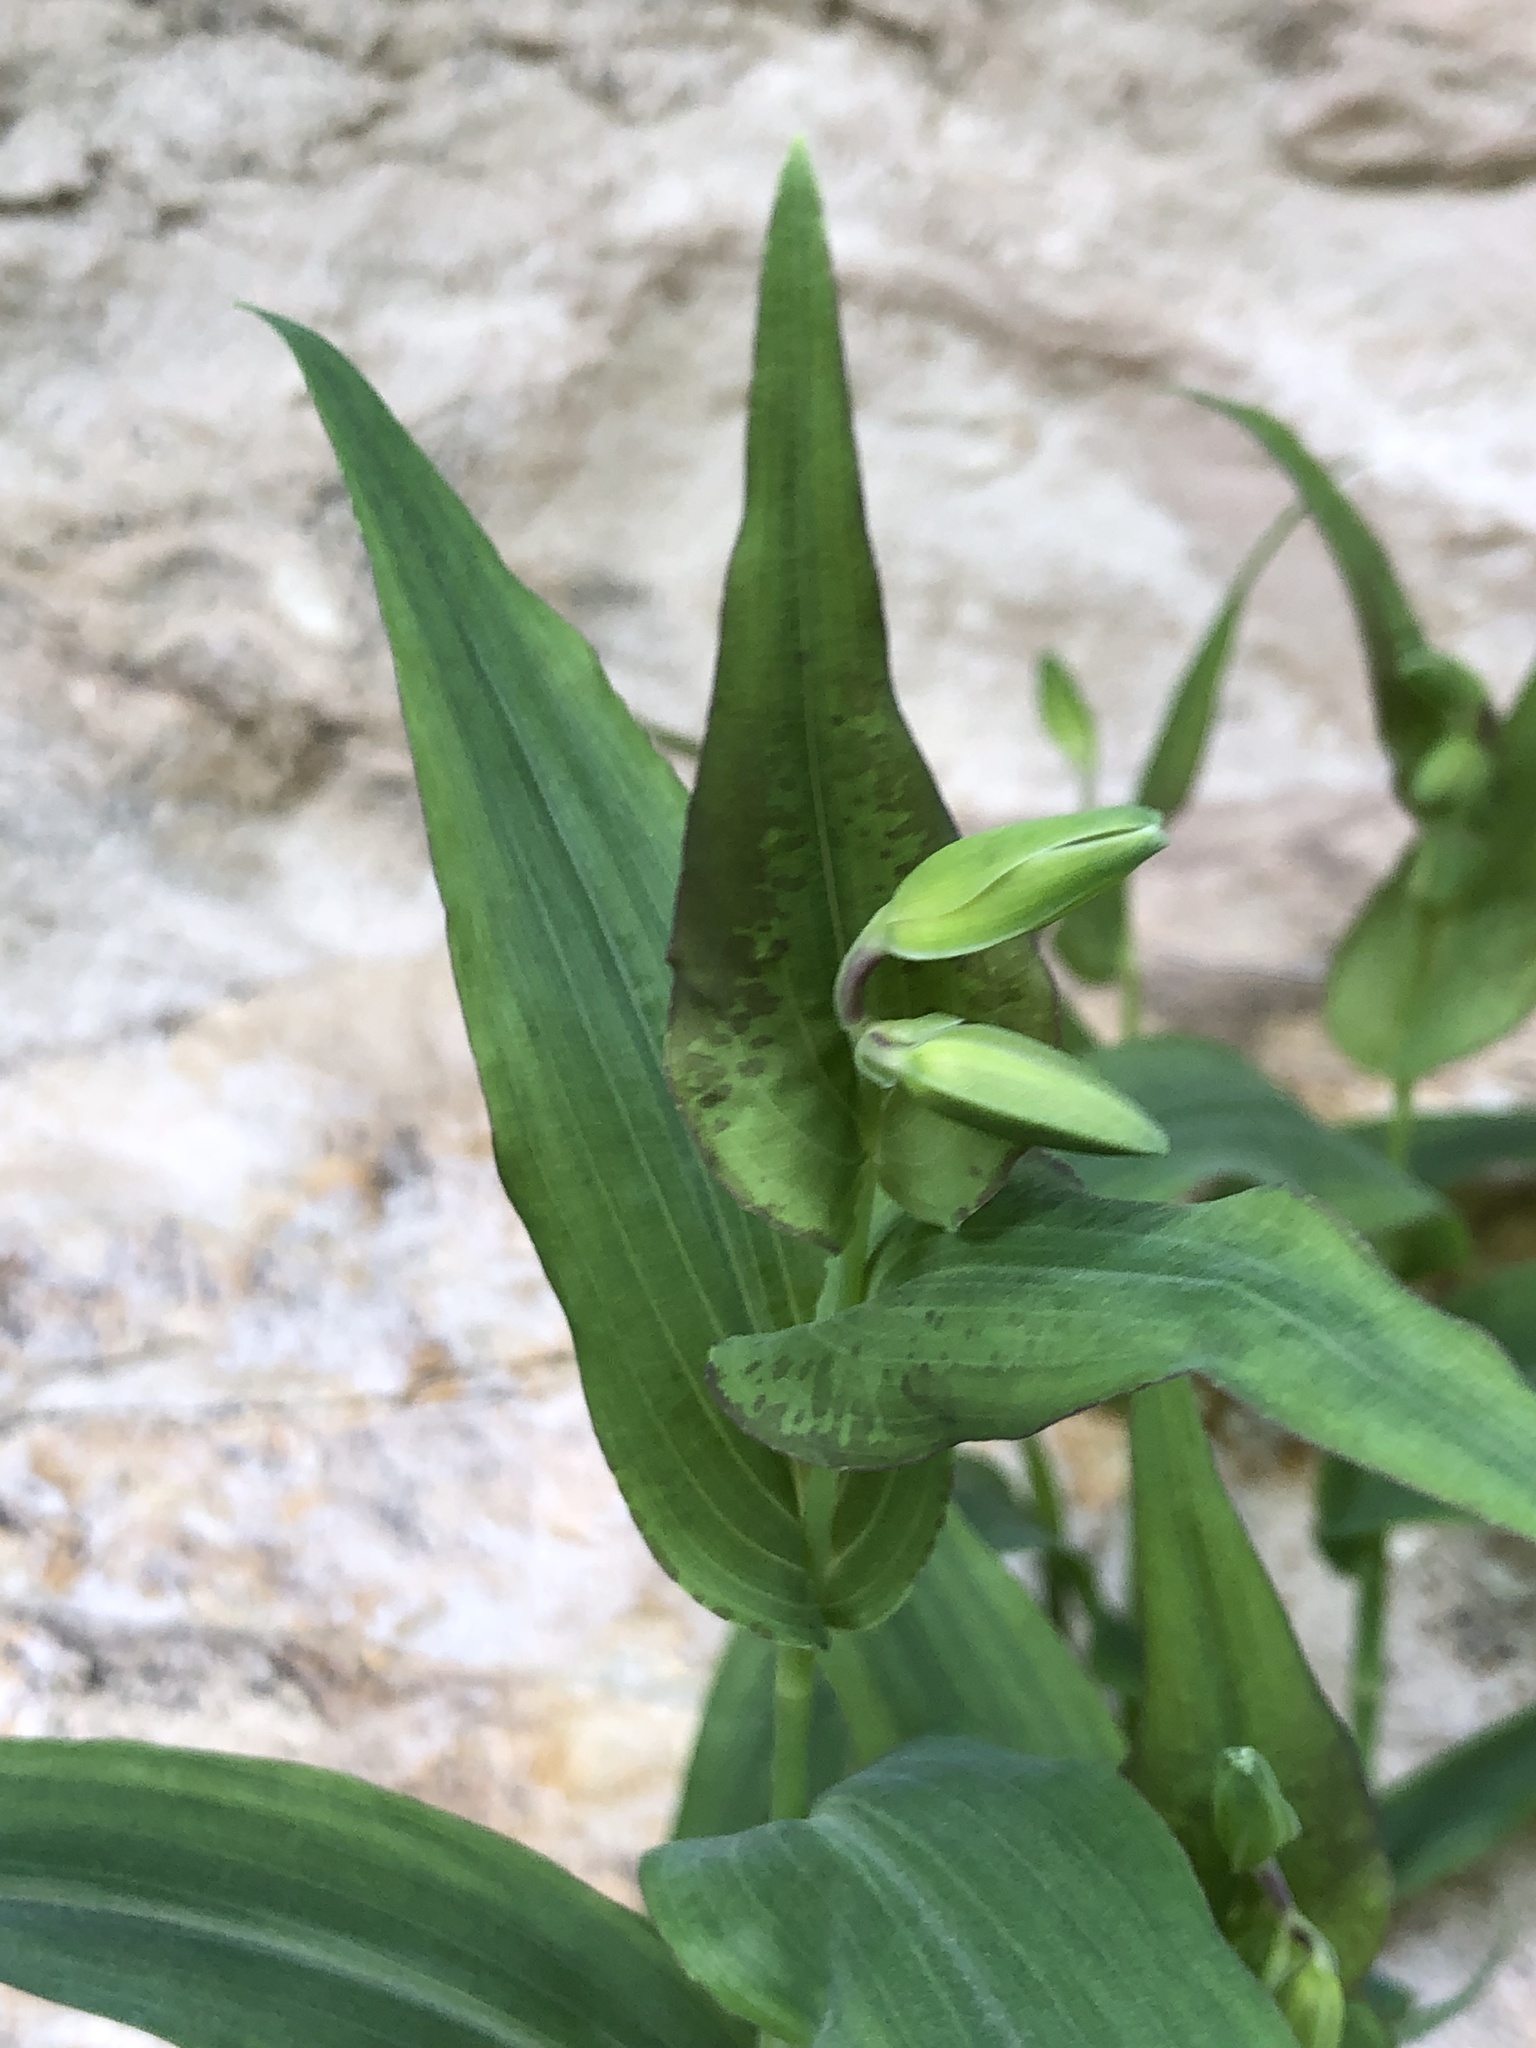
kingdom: Plantae
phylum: Tracheophyta
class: Liliopsida
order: Commelinales
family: Commelinaceae
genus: Tinantia
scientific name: Tinantia anomala
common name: False dayflower
